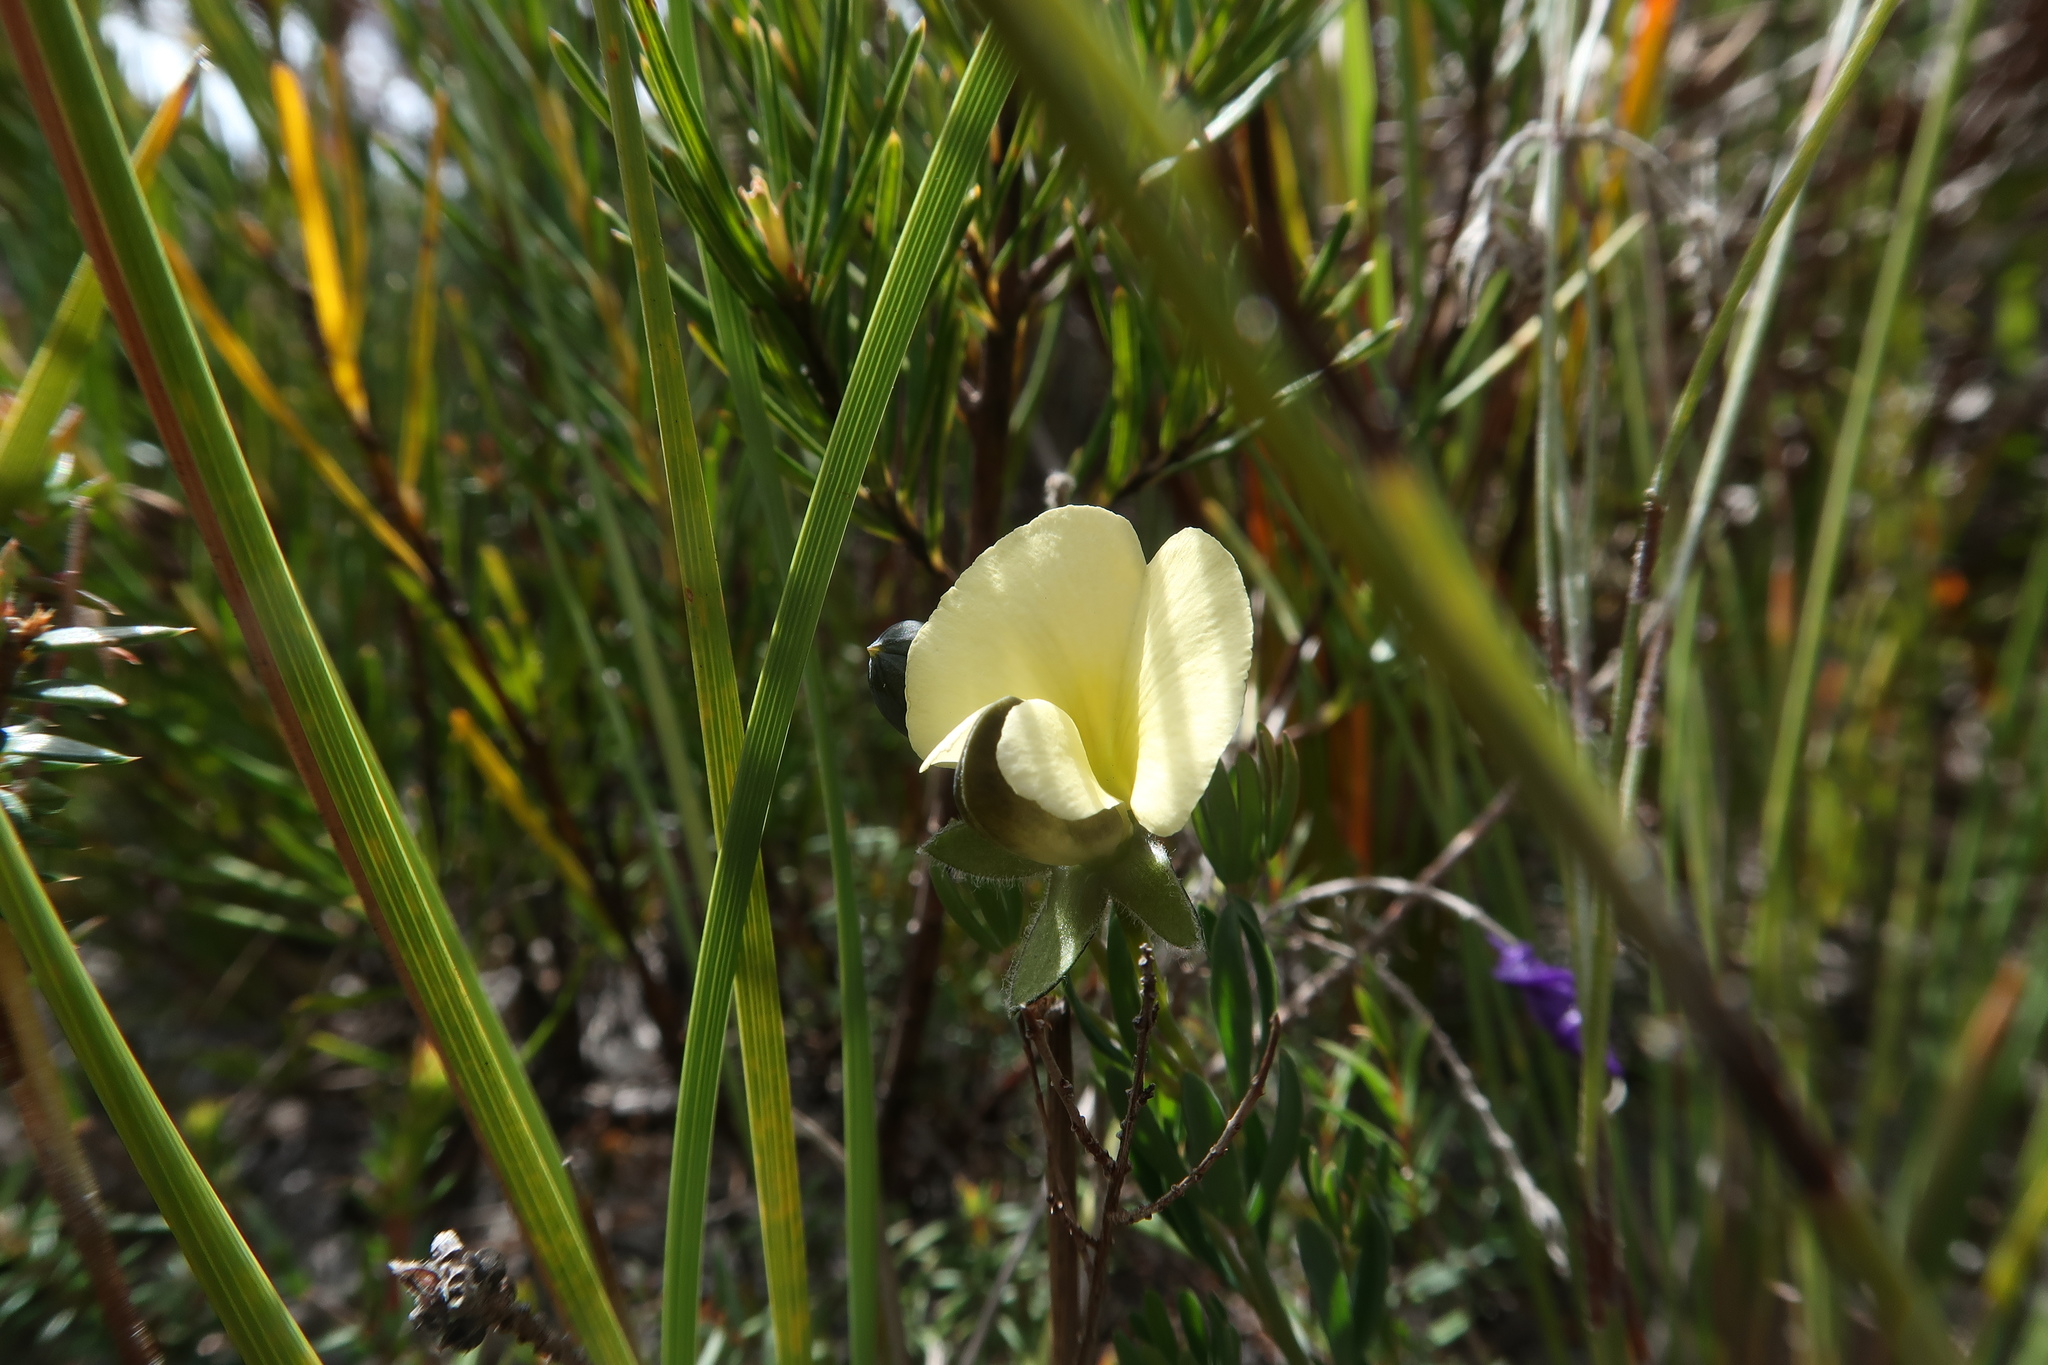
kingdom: Plantae
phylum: Tracheophyta
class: Magnoliopsida
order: Fabales
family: Fabaceae
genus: Gompholobium
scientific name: Gompholobium huegelii
